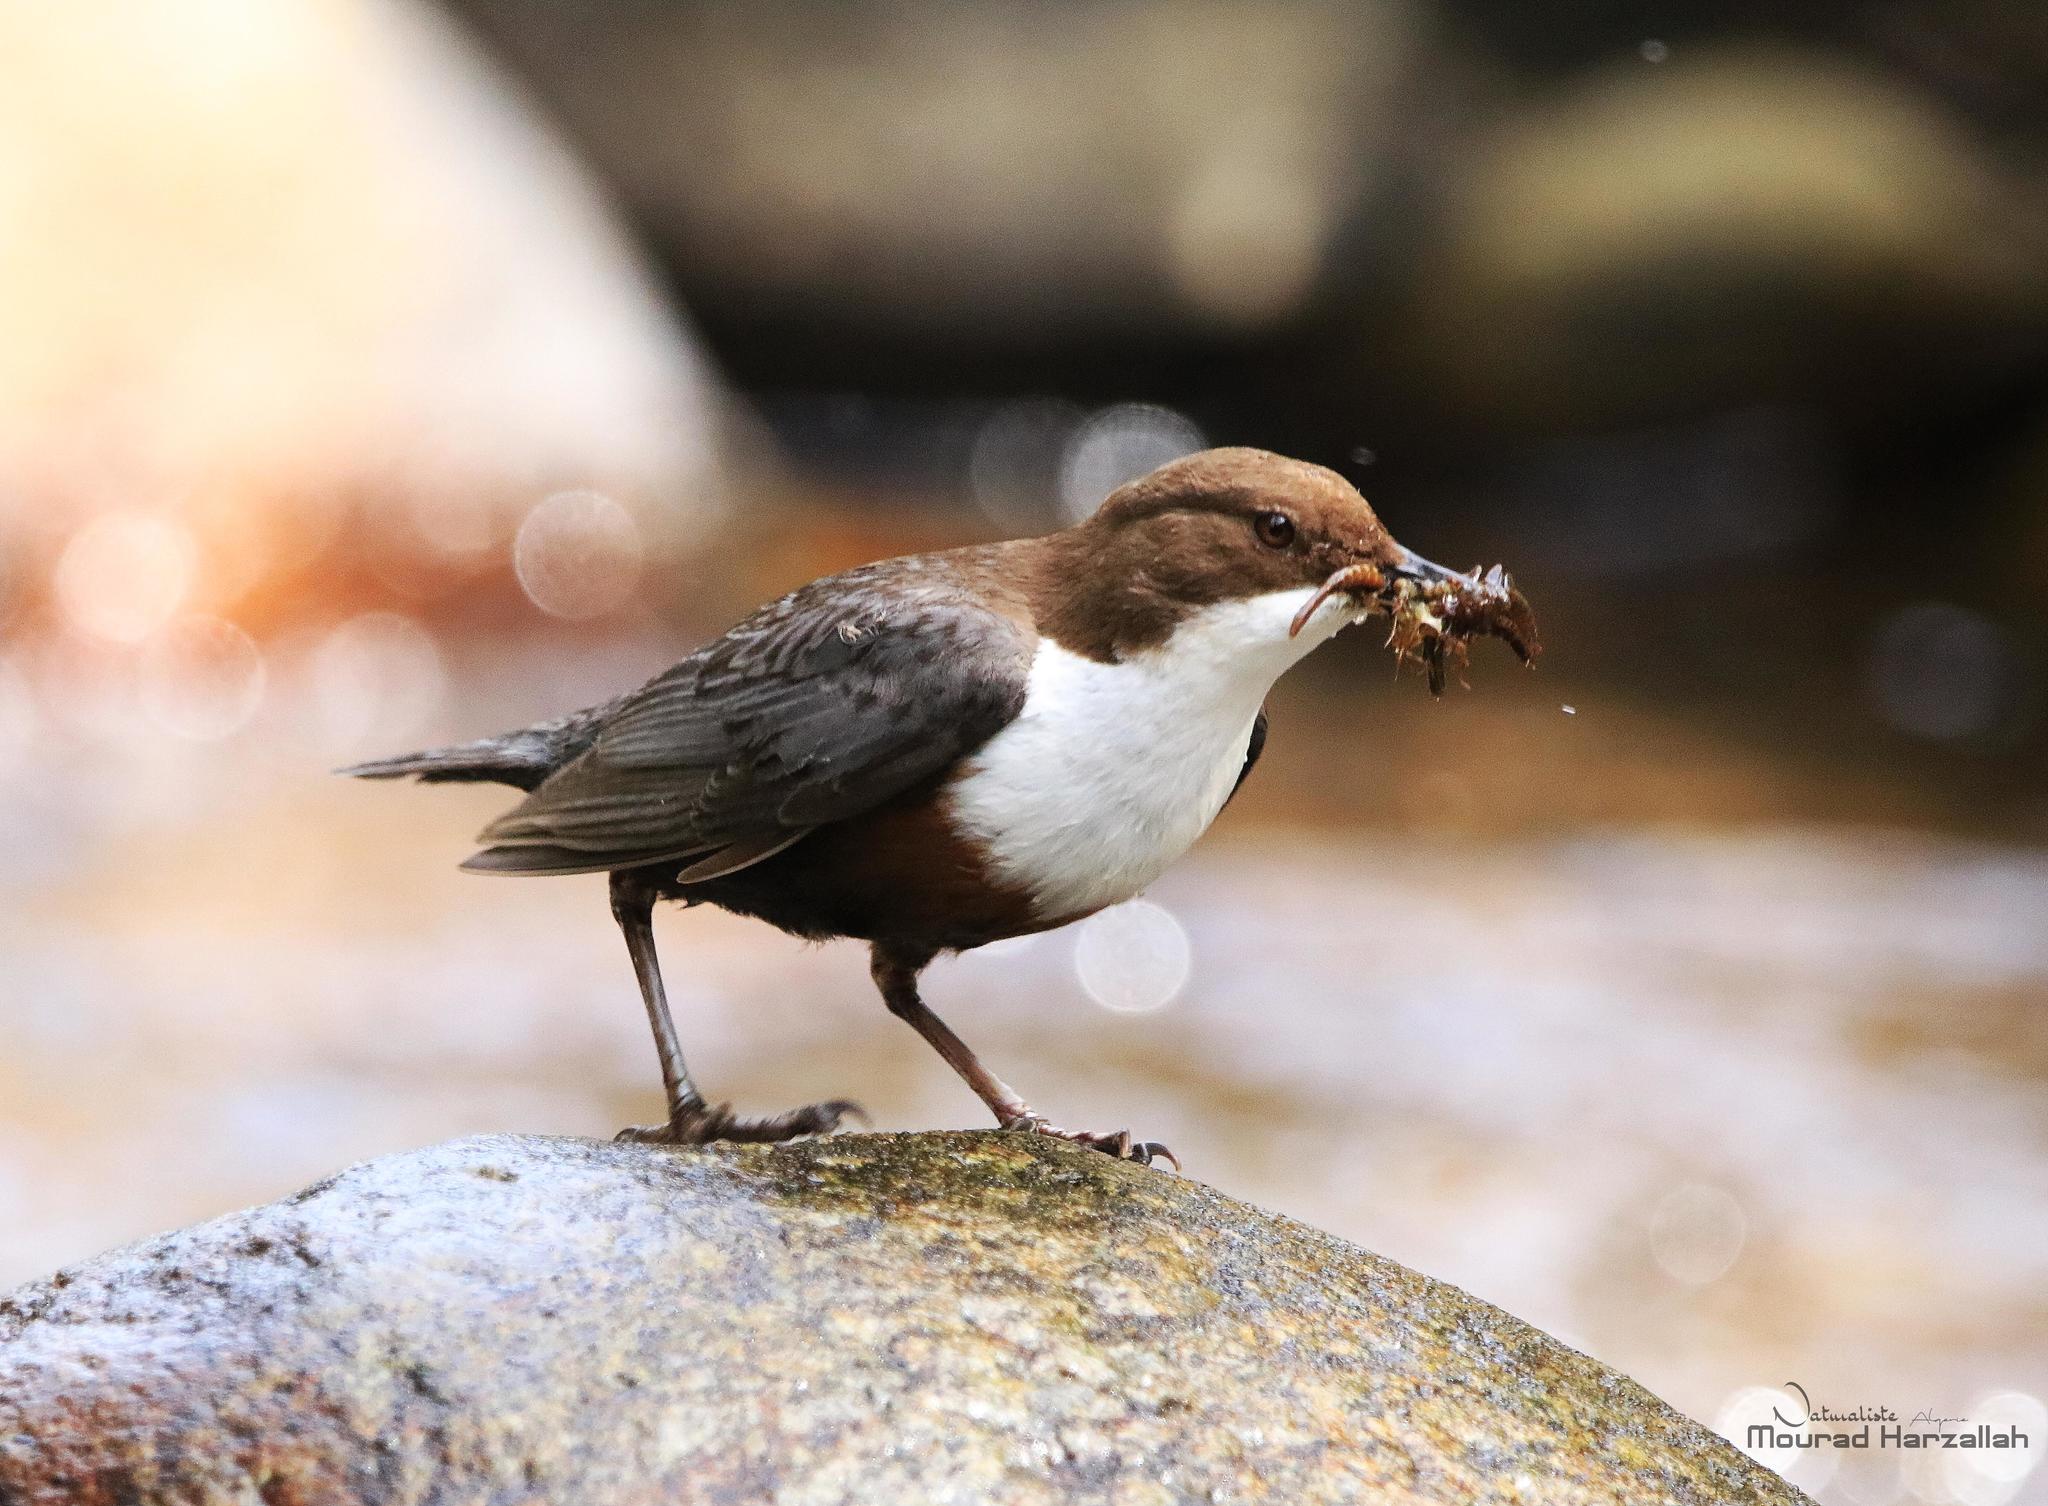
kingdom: Animalia
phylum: Chordata
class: Aves
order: Passeriformes
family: Cinclidae
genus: Cinclus
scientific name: Cinclus cinclus
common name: White-throated dipper
